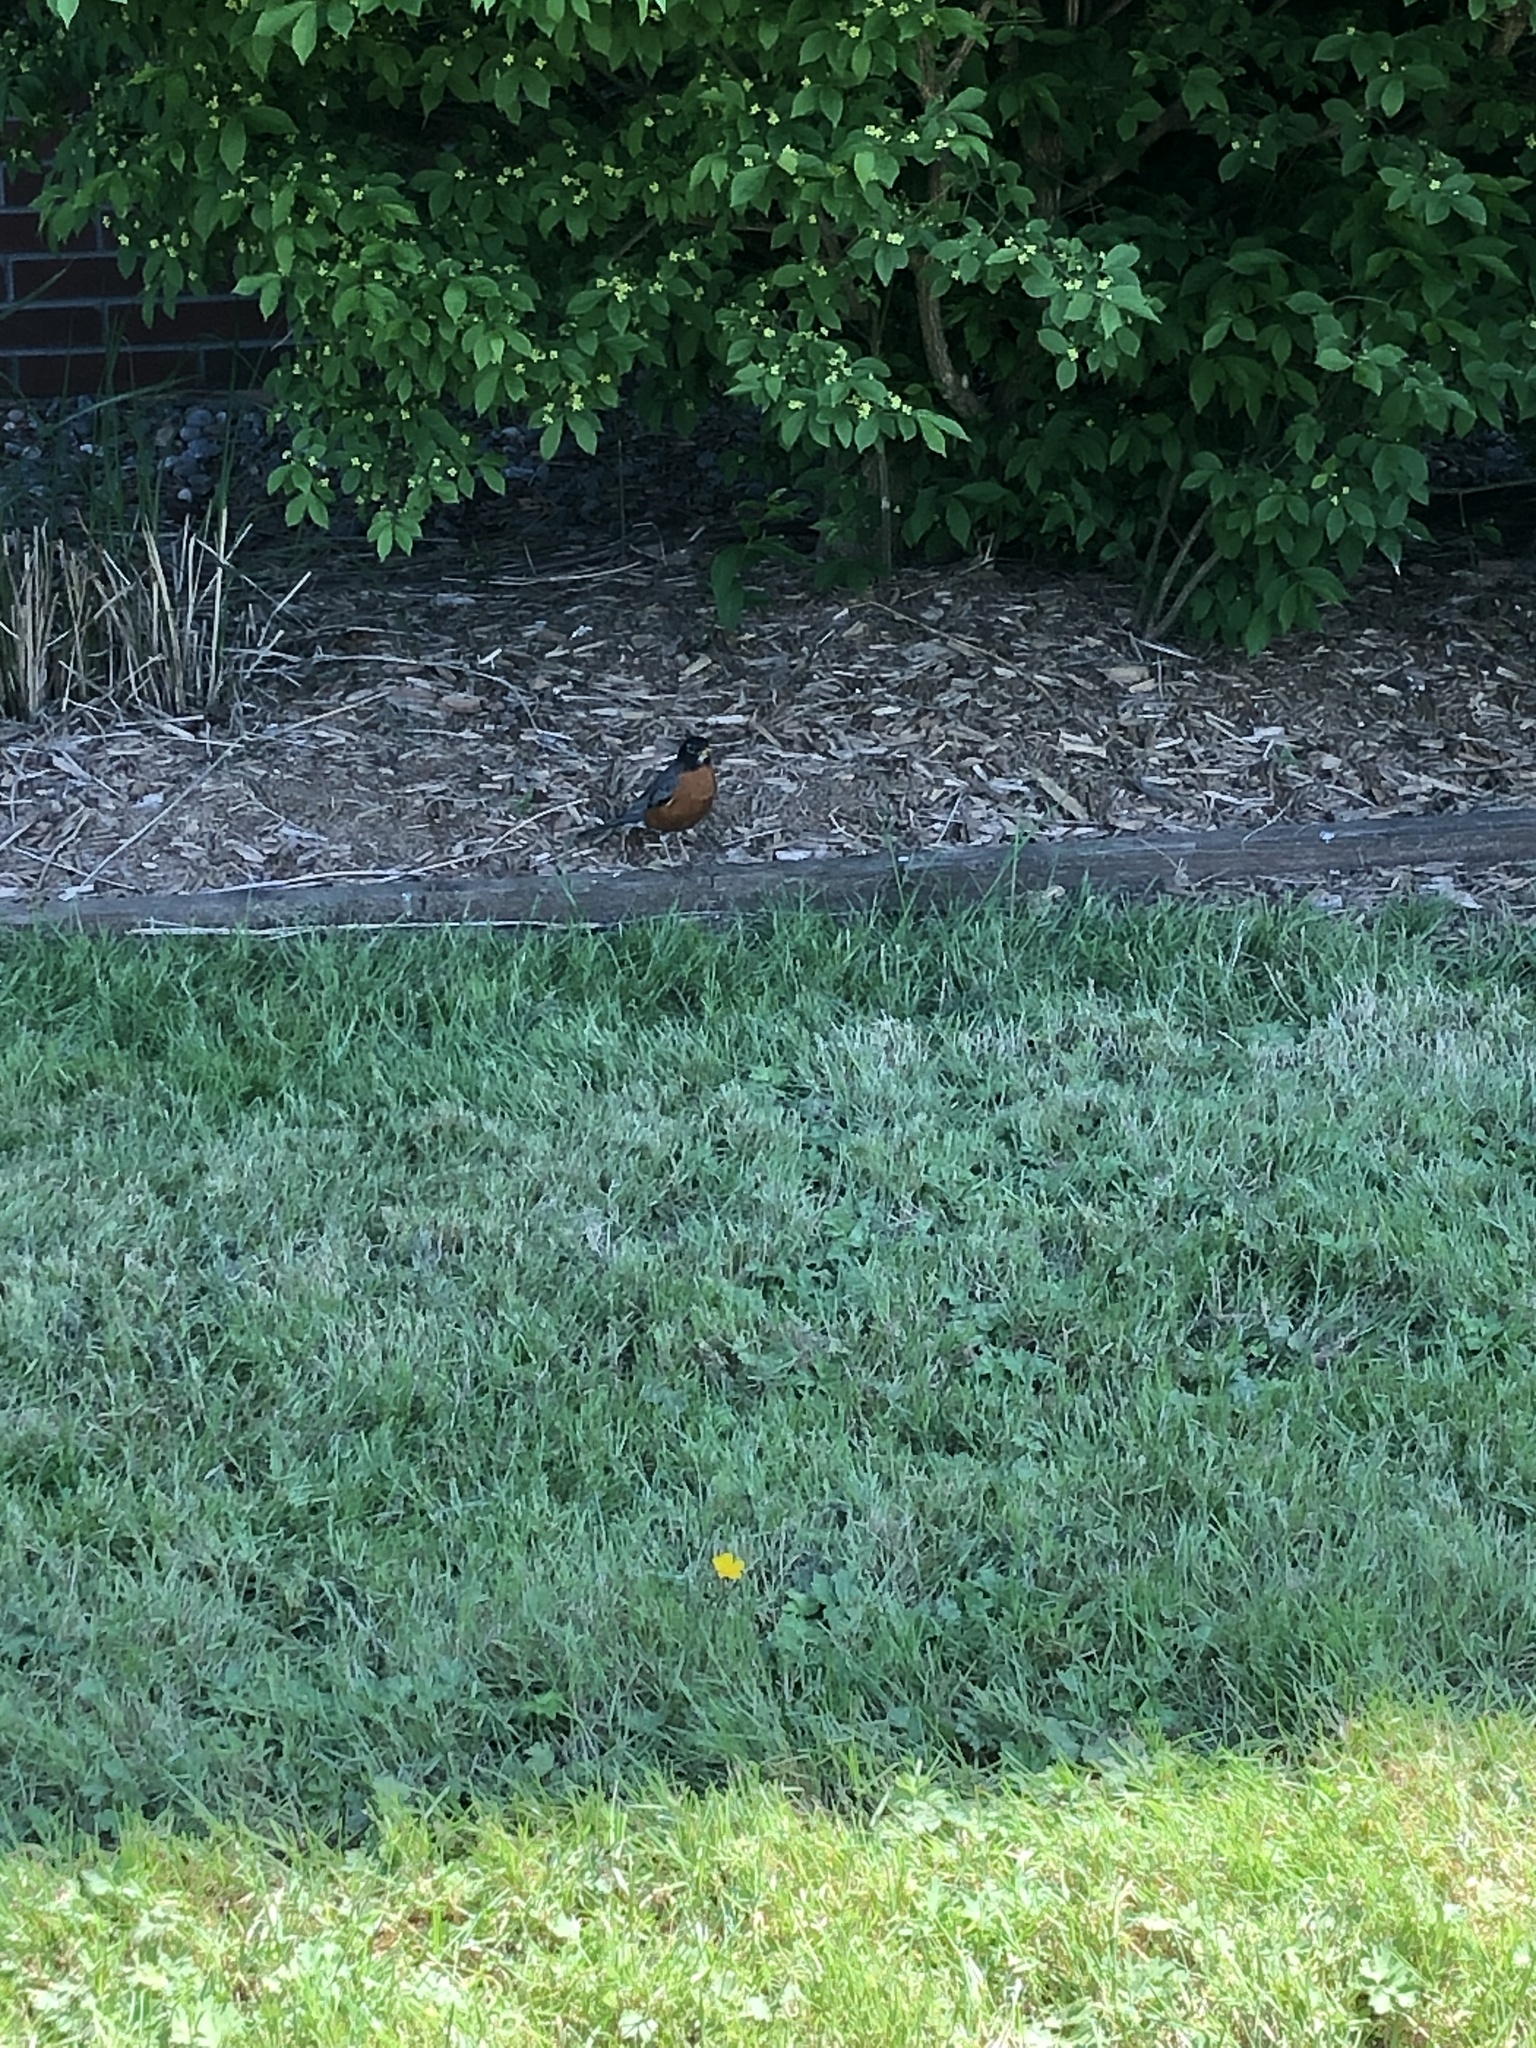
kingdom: Animalia
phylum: Chordata
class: Aves
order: Passeriformes
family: Turdidae
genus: Turdus
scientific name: Turdus migratorius
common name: American robin
